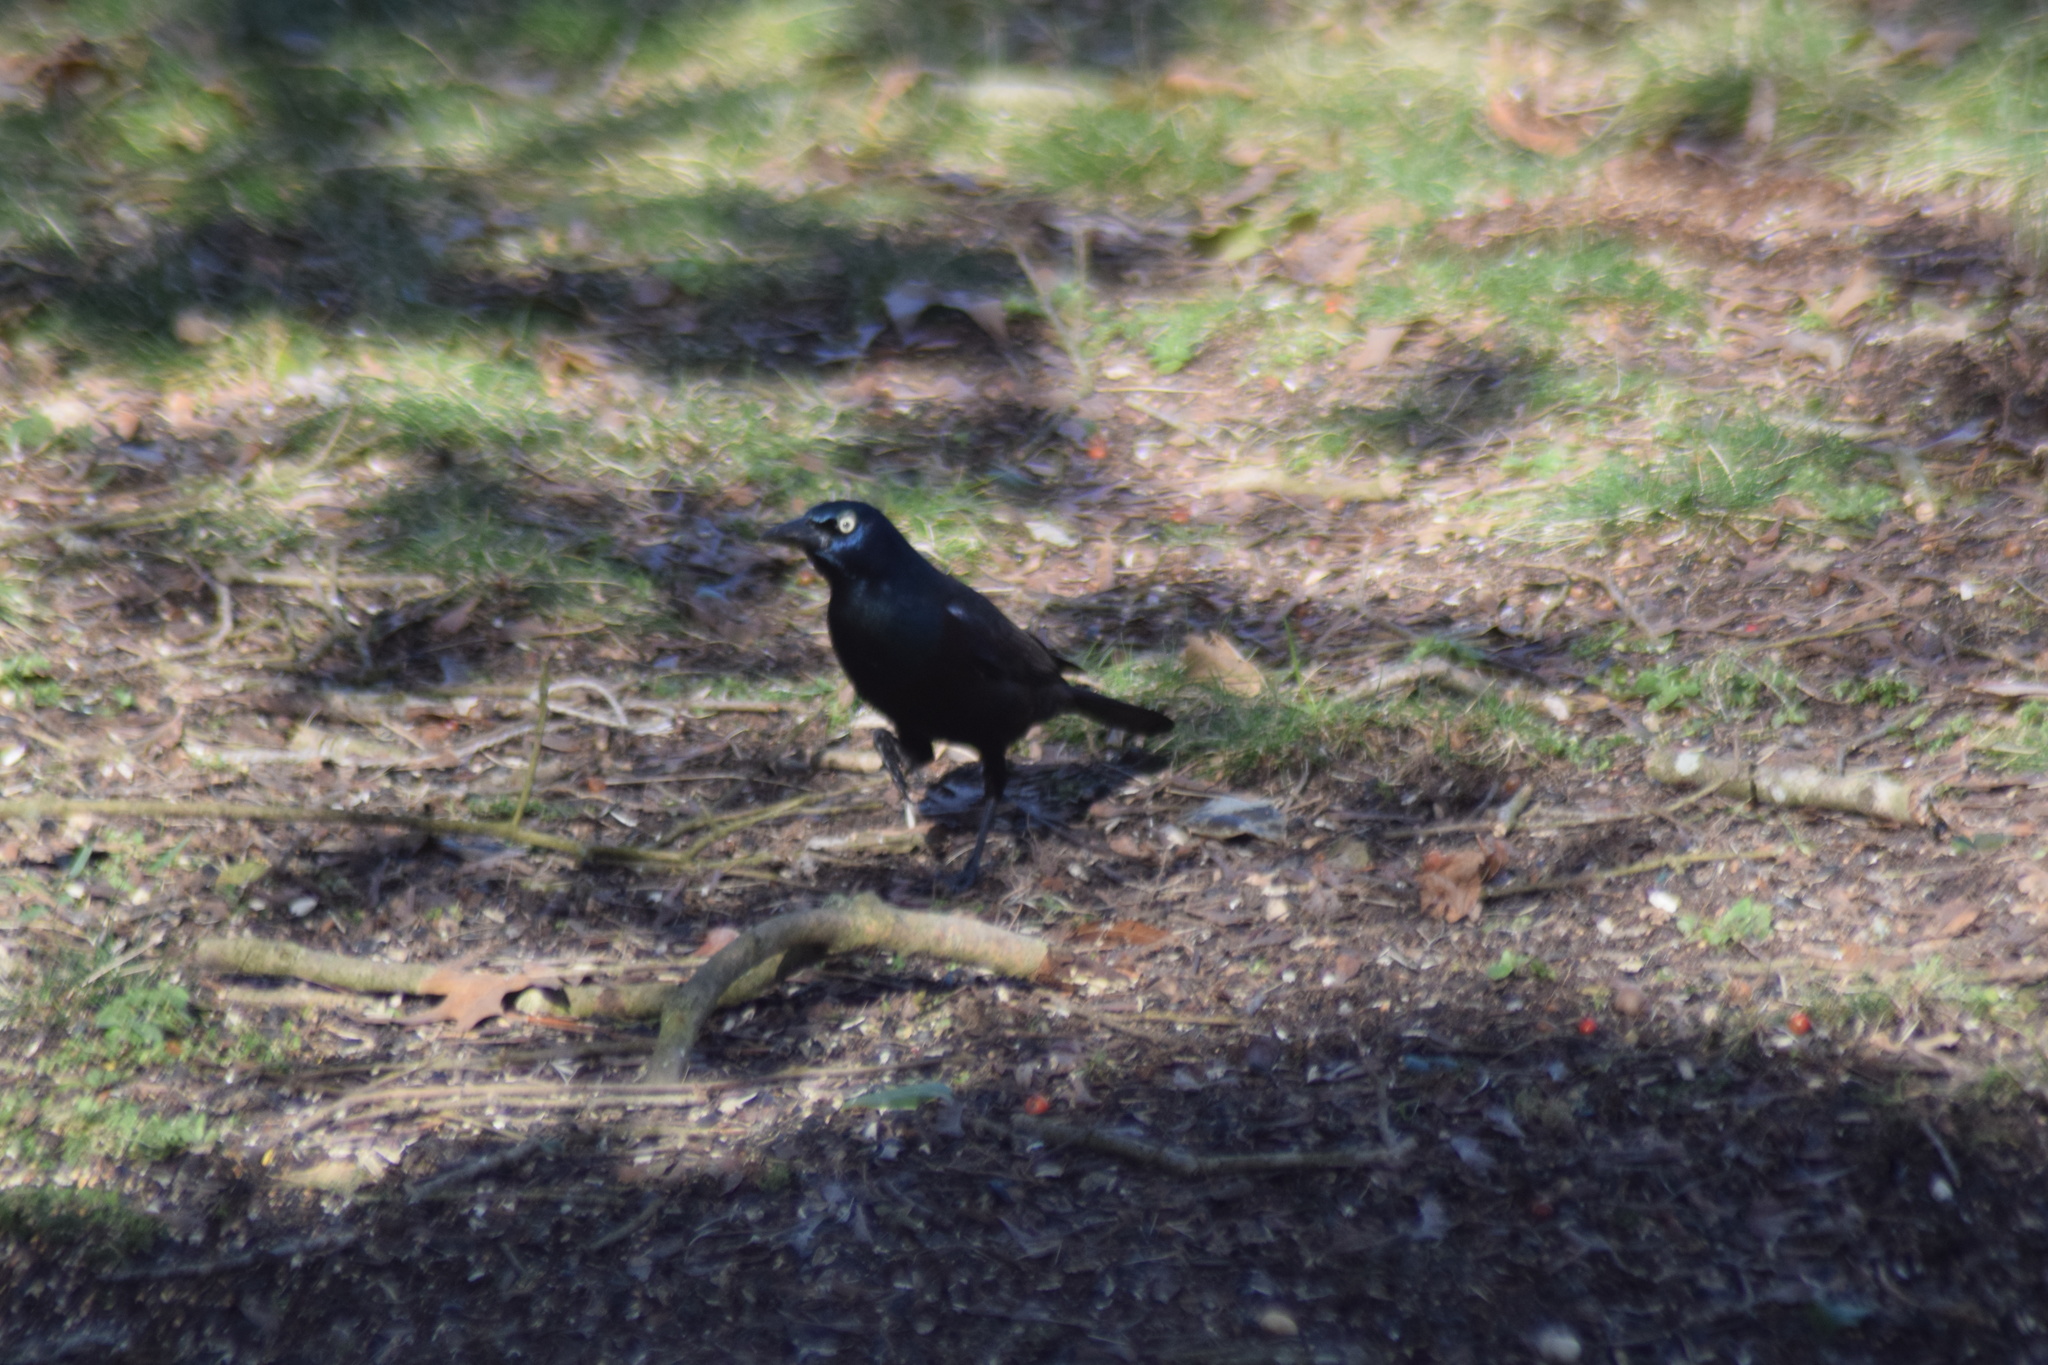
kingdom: Animalia
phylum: Chordata
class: Aves
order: Passeriformes
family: Icteridae
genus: Quiscalus
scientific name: Quiscalus quiscula
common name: Common grackle
